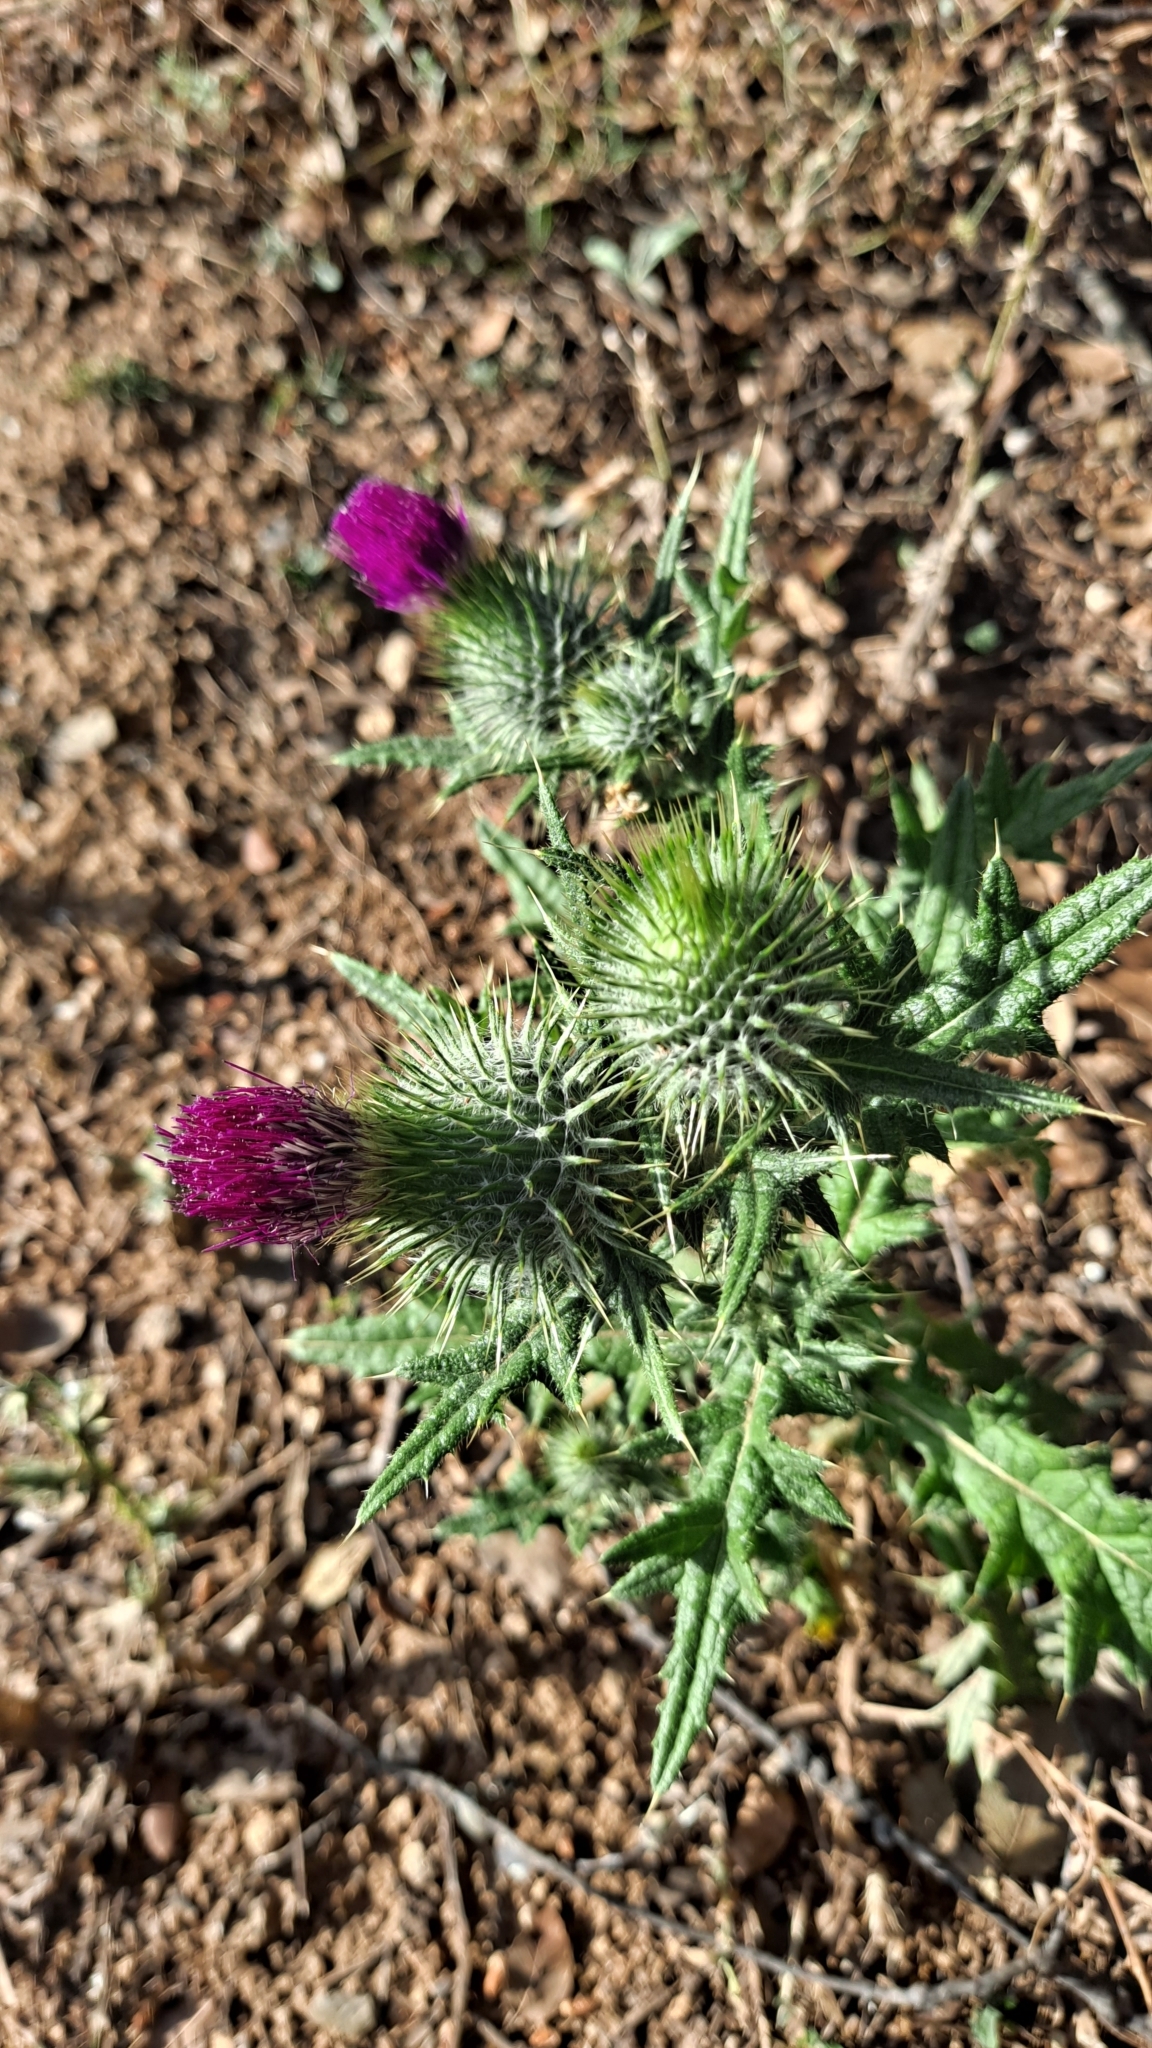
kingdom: Plantae
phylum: Tracheophyta
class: Magnoliopsida
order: Asterales
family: Asteraceae
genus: Cirsium
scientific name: Cirsium vulgare
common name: Bull thistle
